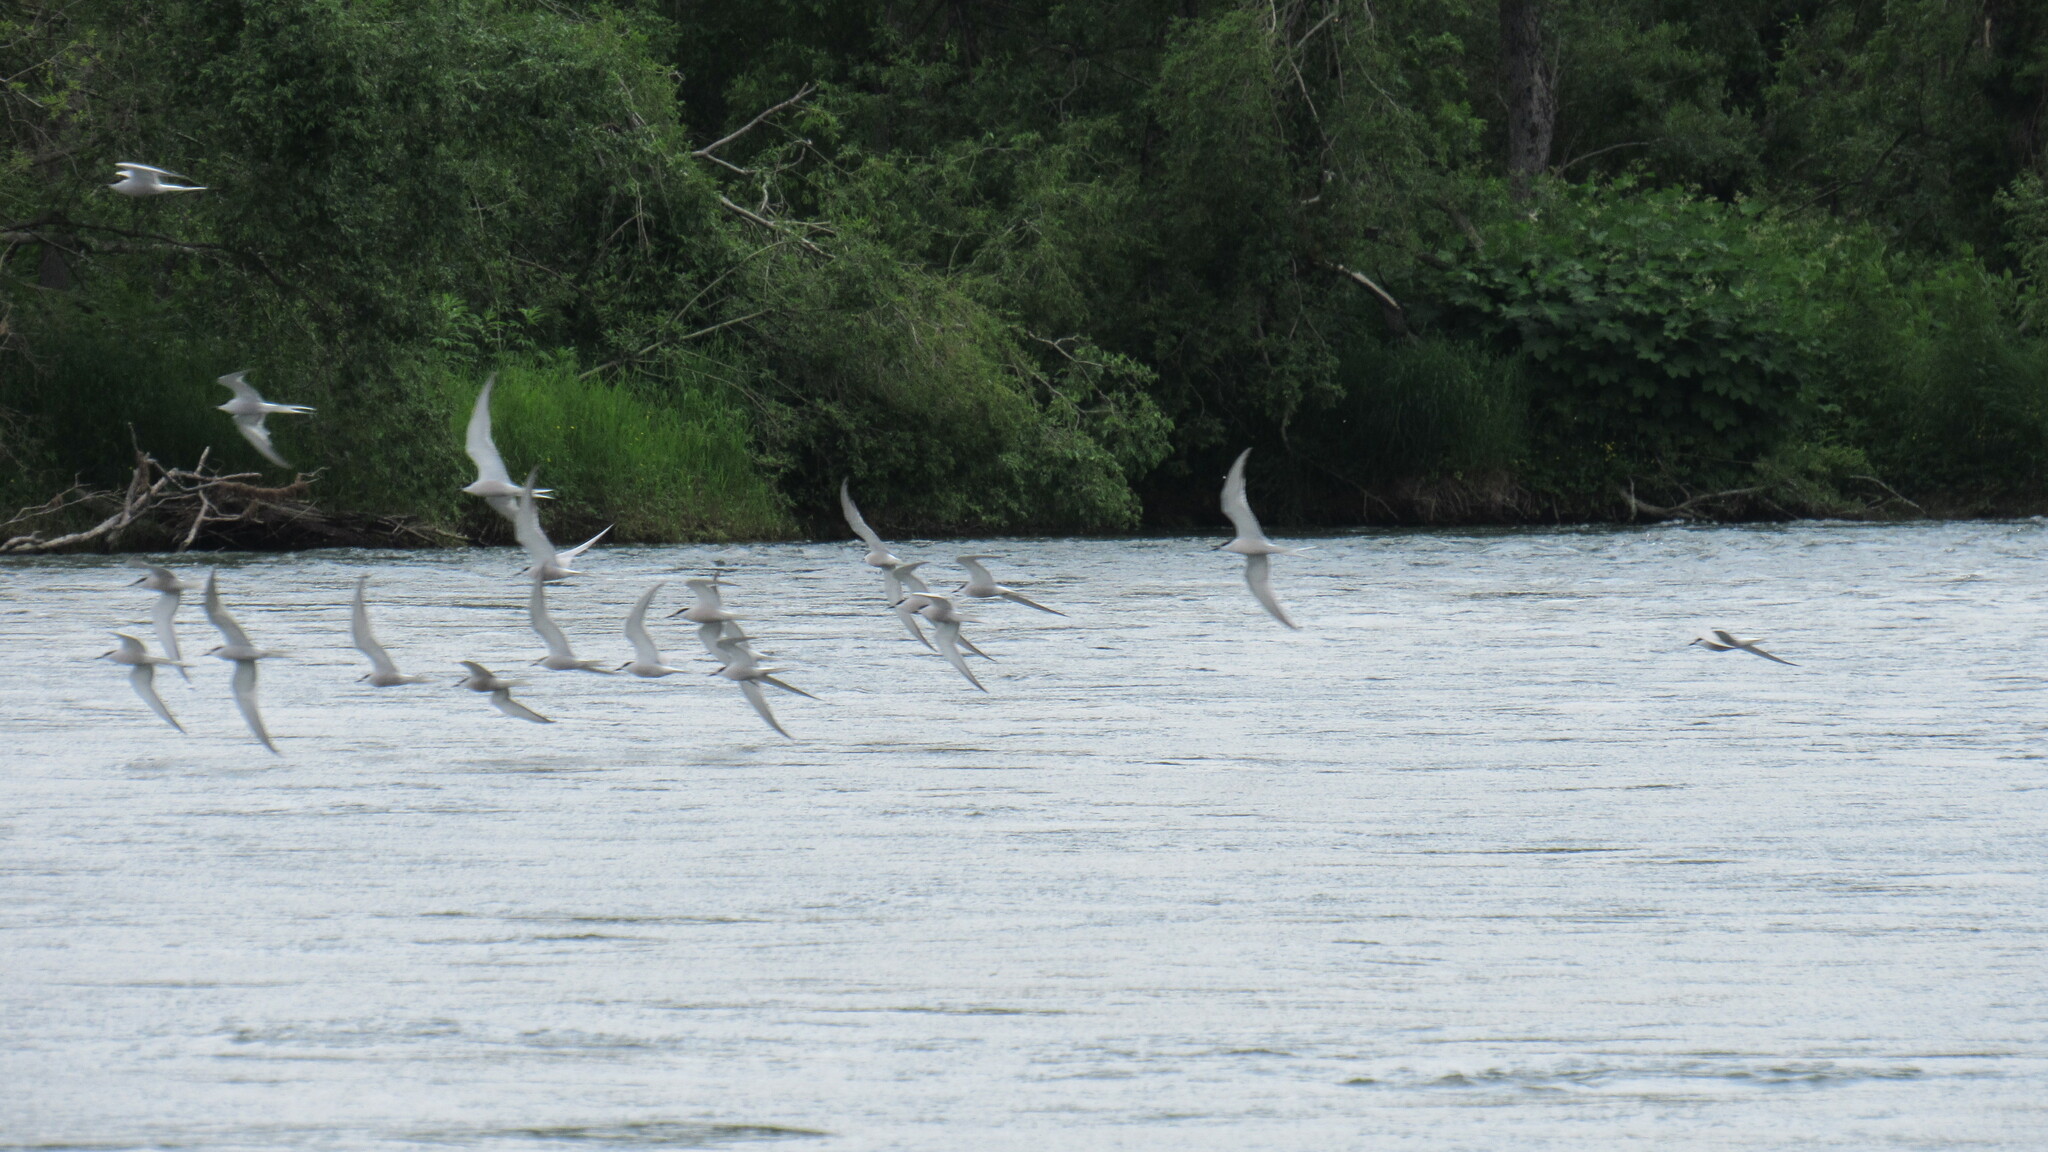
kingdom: Animalia
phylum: Chordata
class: Aves
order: Charadriiformes
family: Laridae
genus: Sterna
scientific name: Sterna hirundo
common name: Common tern
